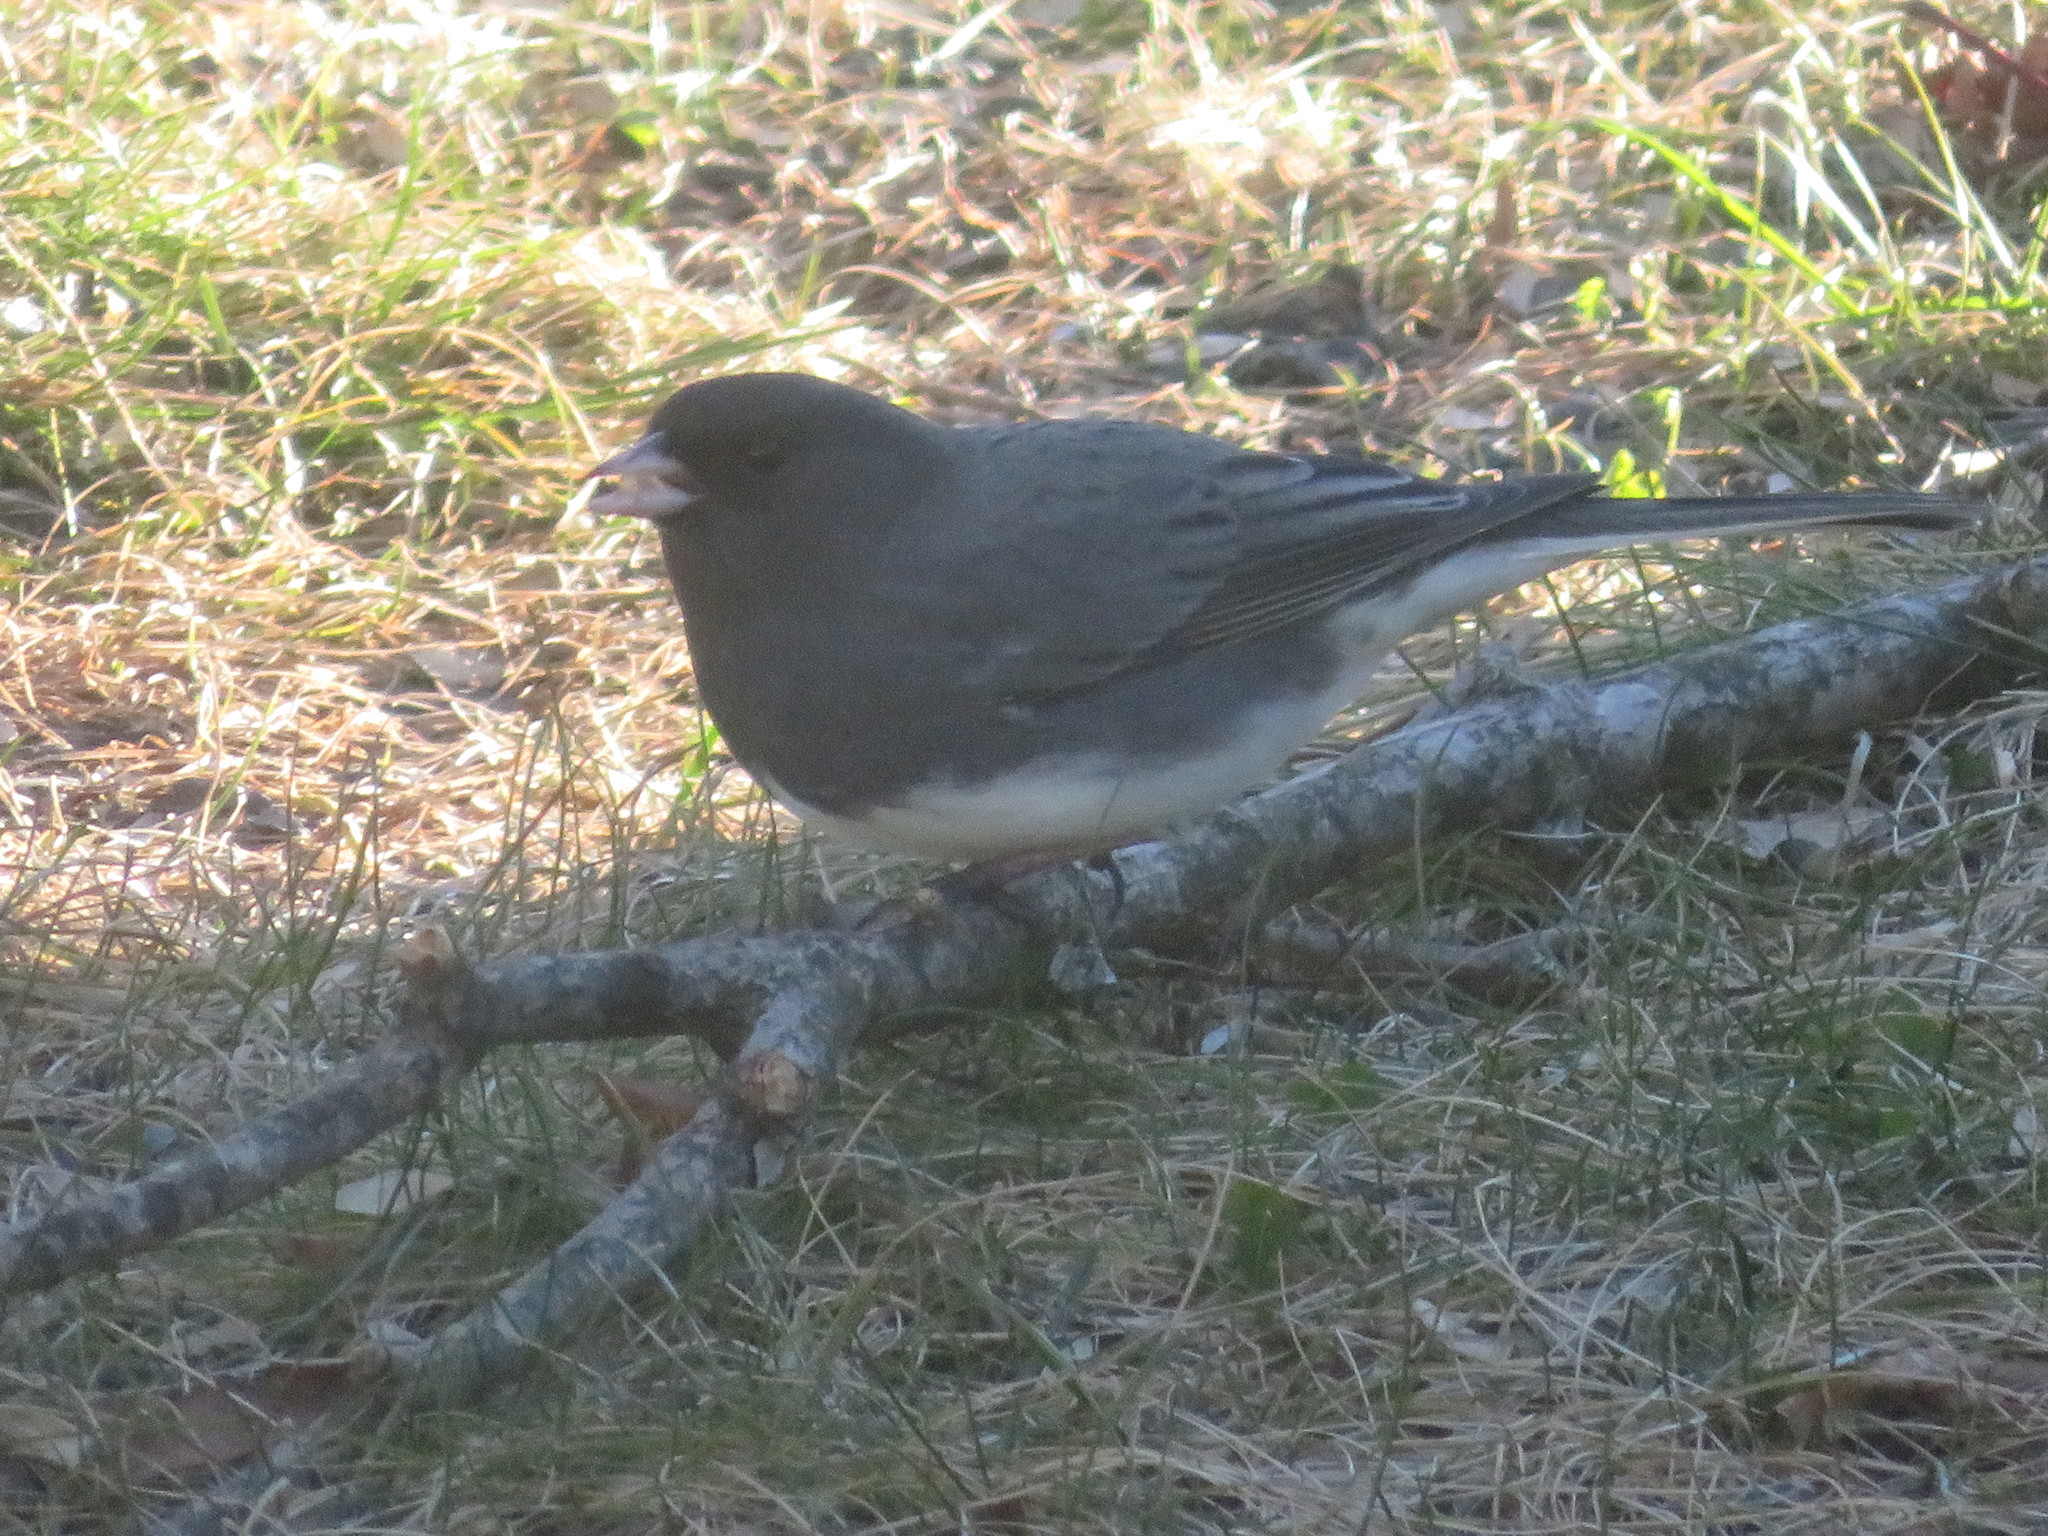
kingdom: Animalia
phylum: Chordata
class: Aves
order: Passeriformes
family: Passerellidae
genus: Junco
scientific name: Junco hyemalis
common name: Dark-eyed junco
